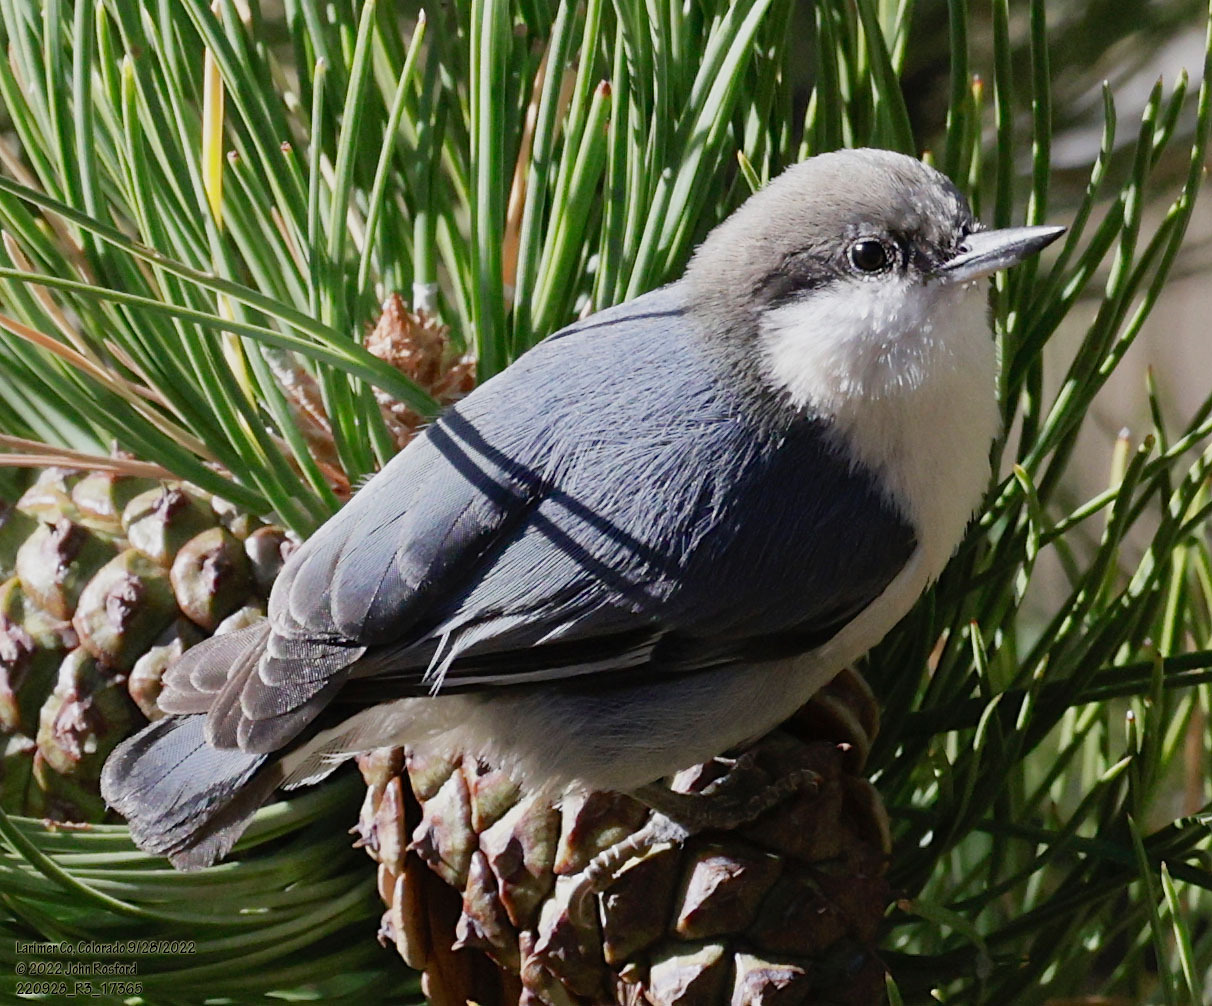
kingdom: Animalia
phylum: Chordata
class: Aves
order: Passeriformes
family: Sittidae
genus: Sitta
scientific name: Sitta pygmaea
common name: Pygmy nuthatch
